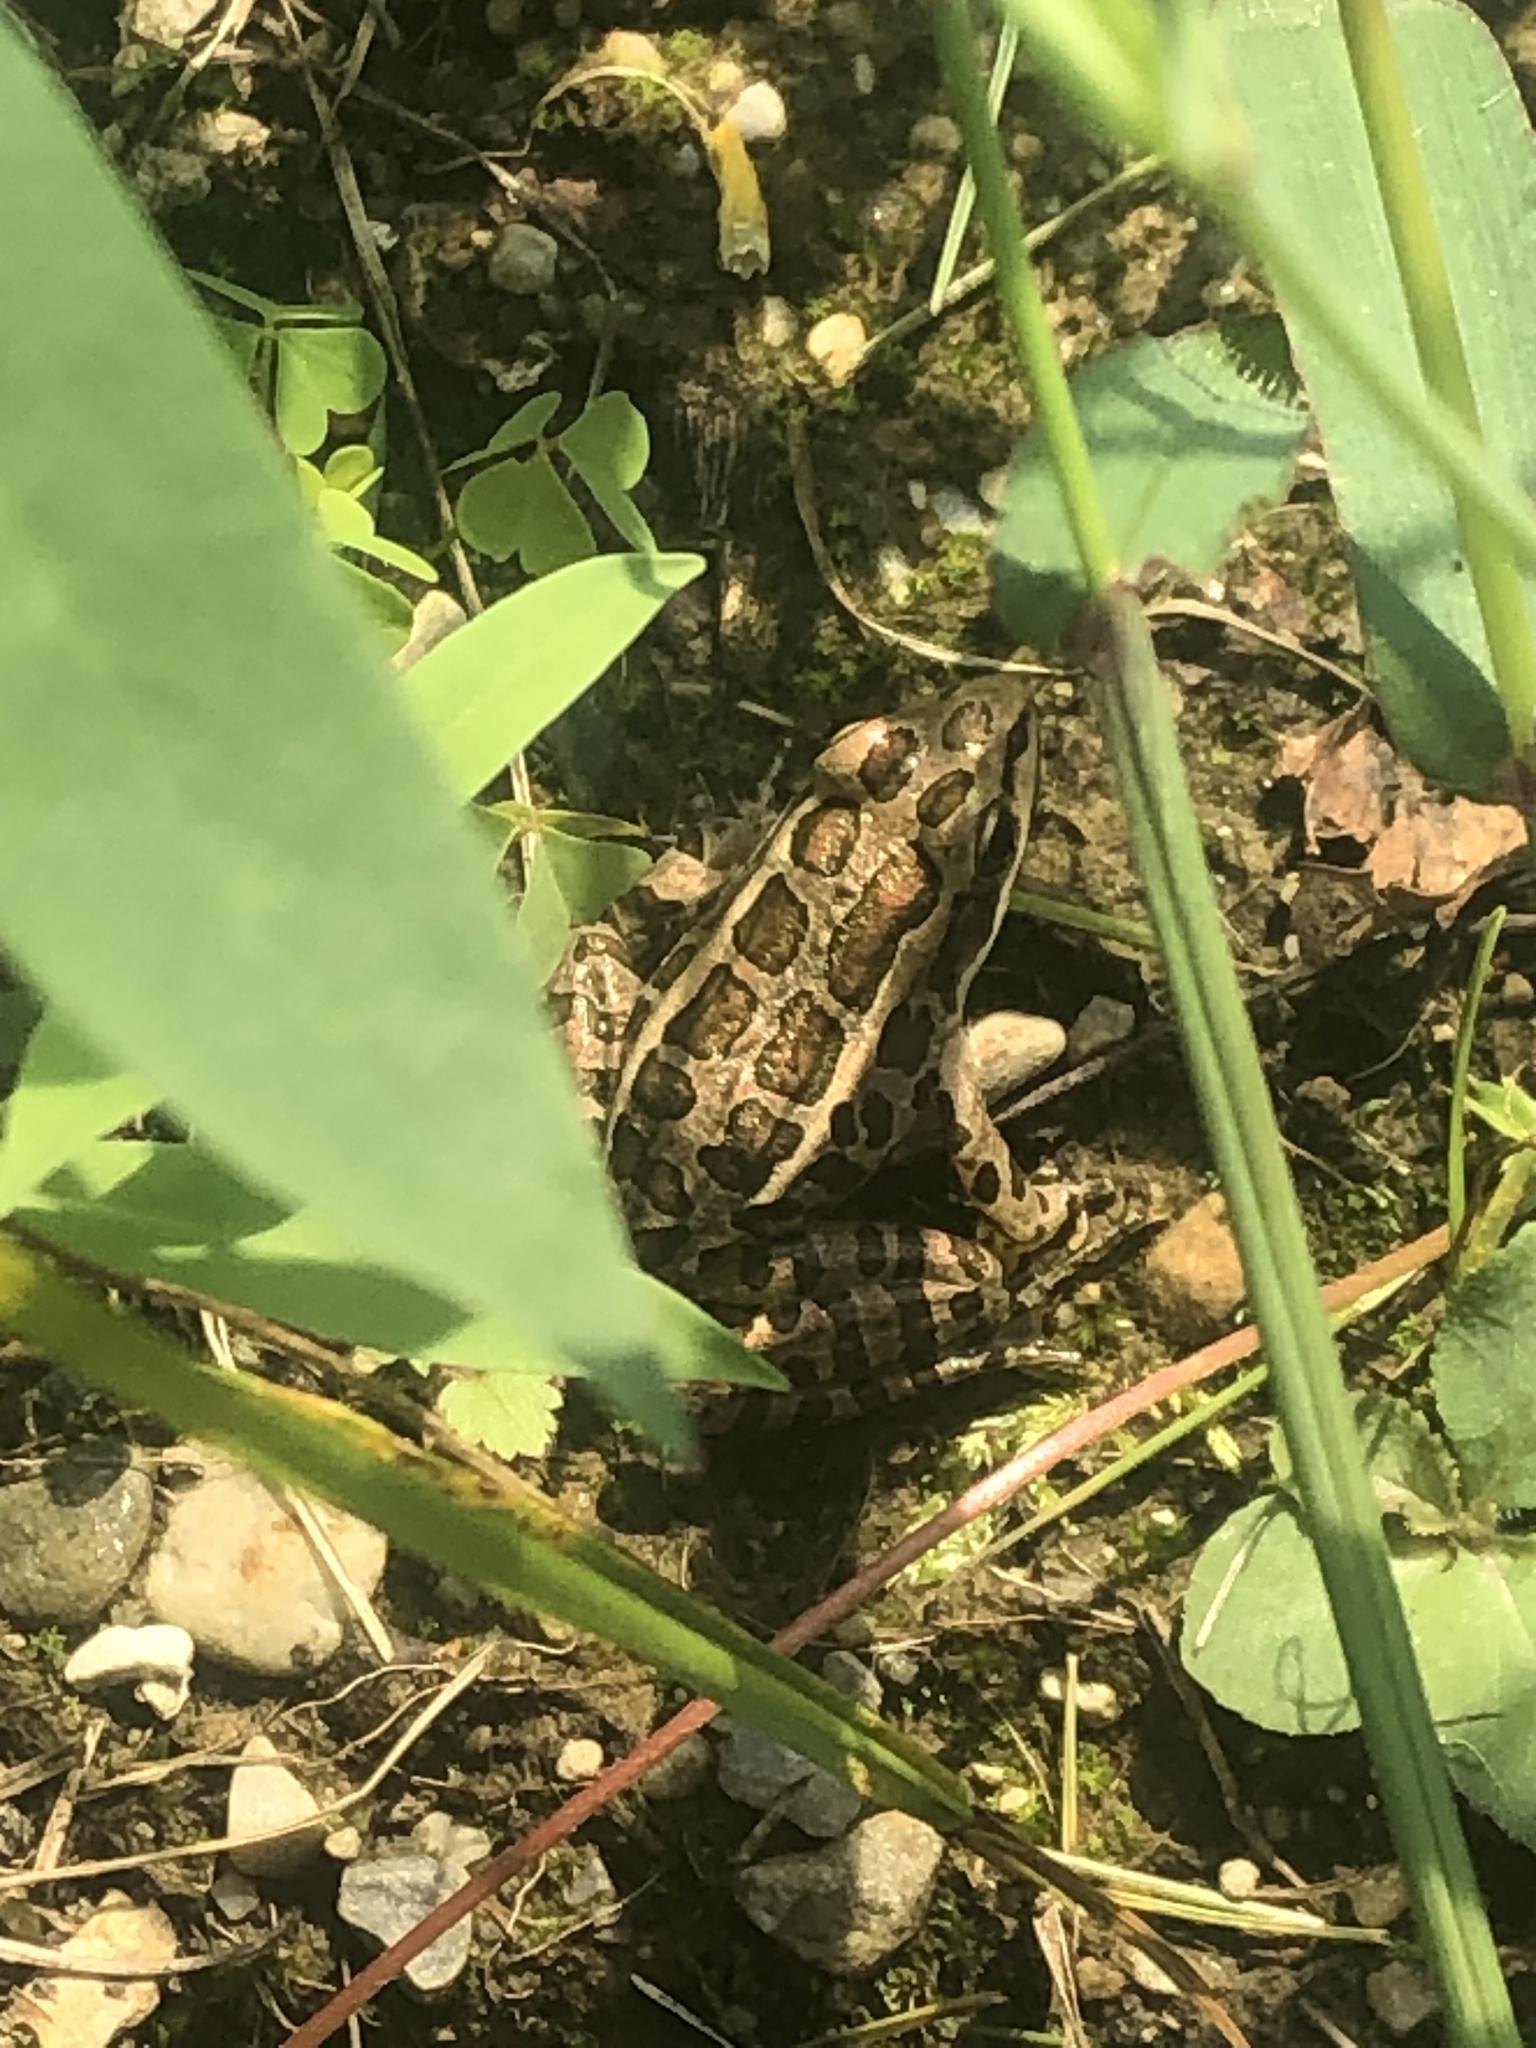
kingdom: Animalia
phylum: Chordata
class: Amphibia
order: Anura
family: Ranidae
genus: Lithobates
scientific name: Lithobates palustris
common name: Pickerel frog
